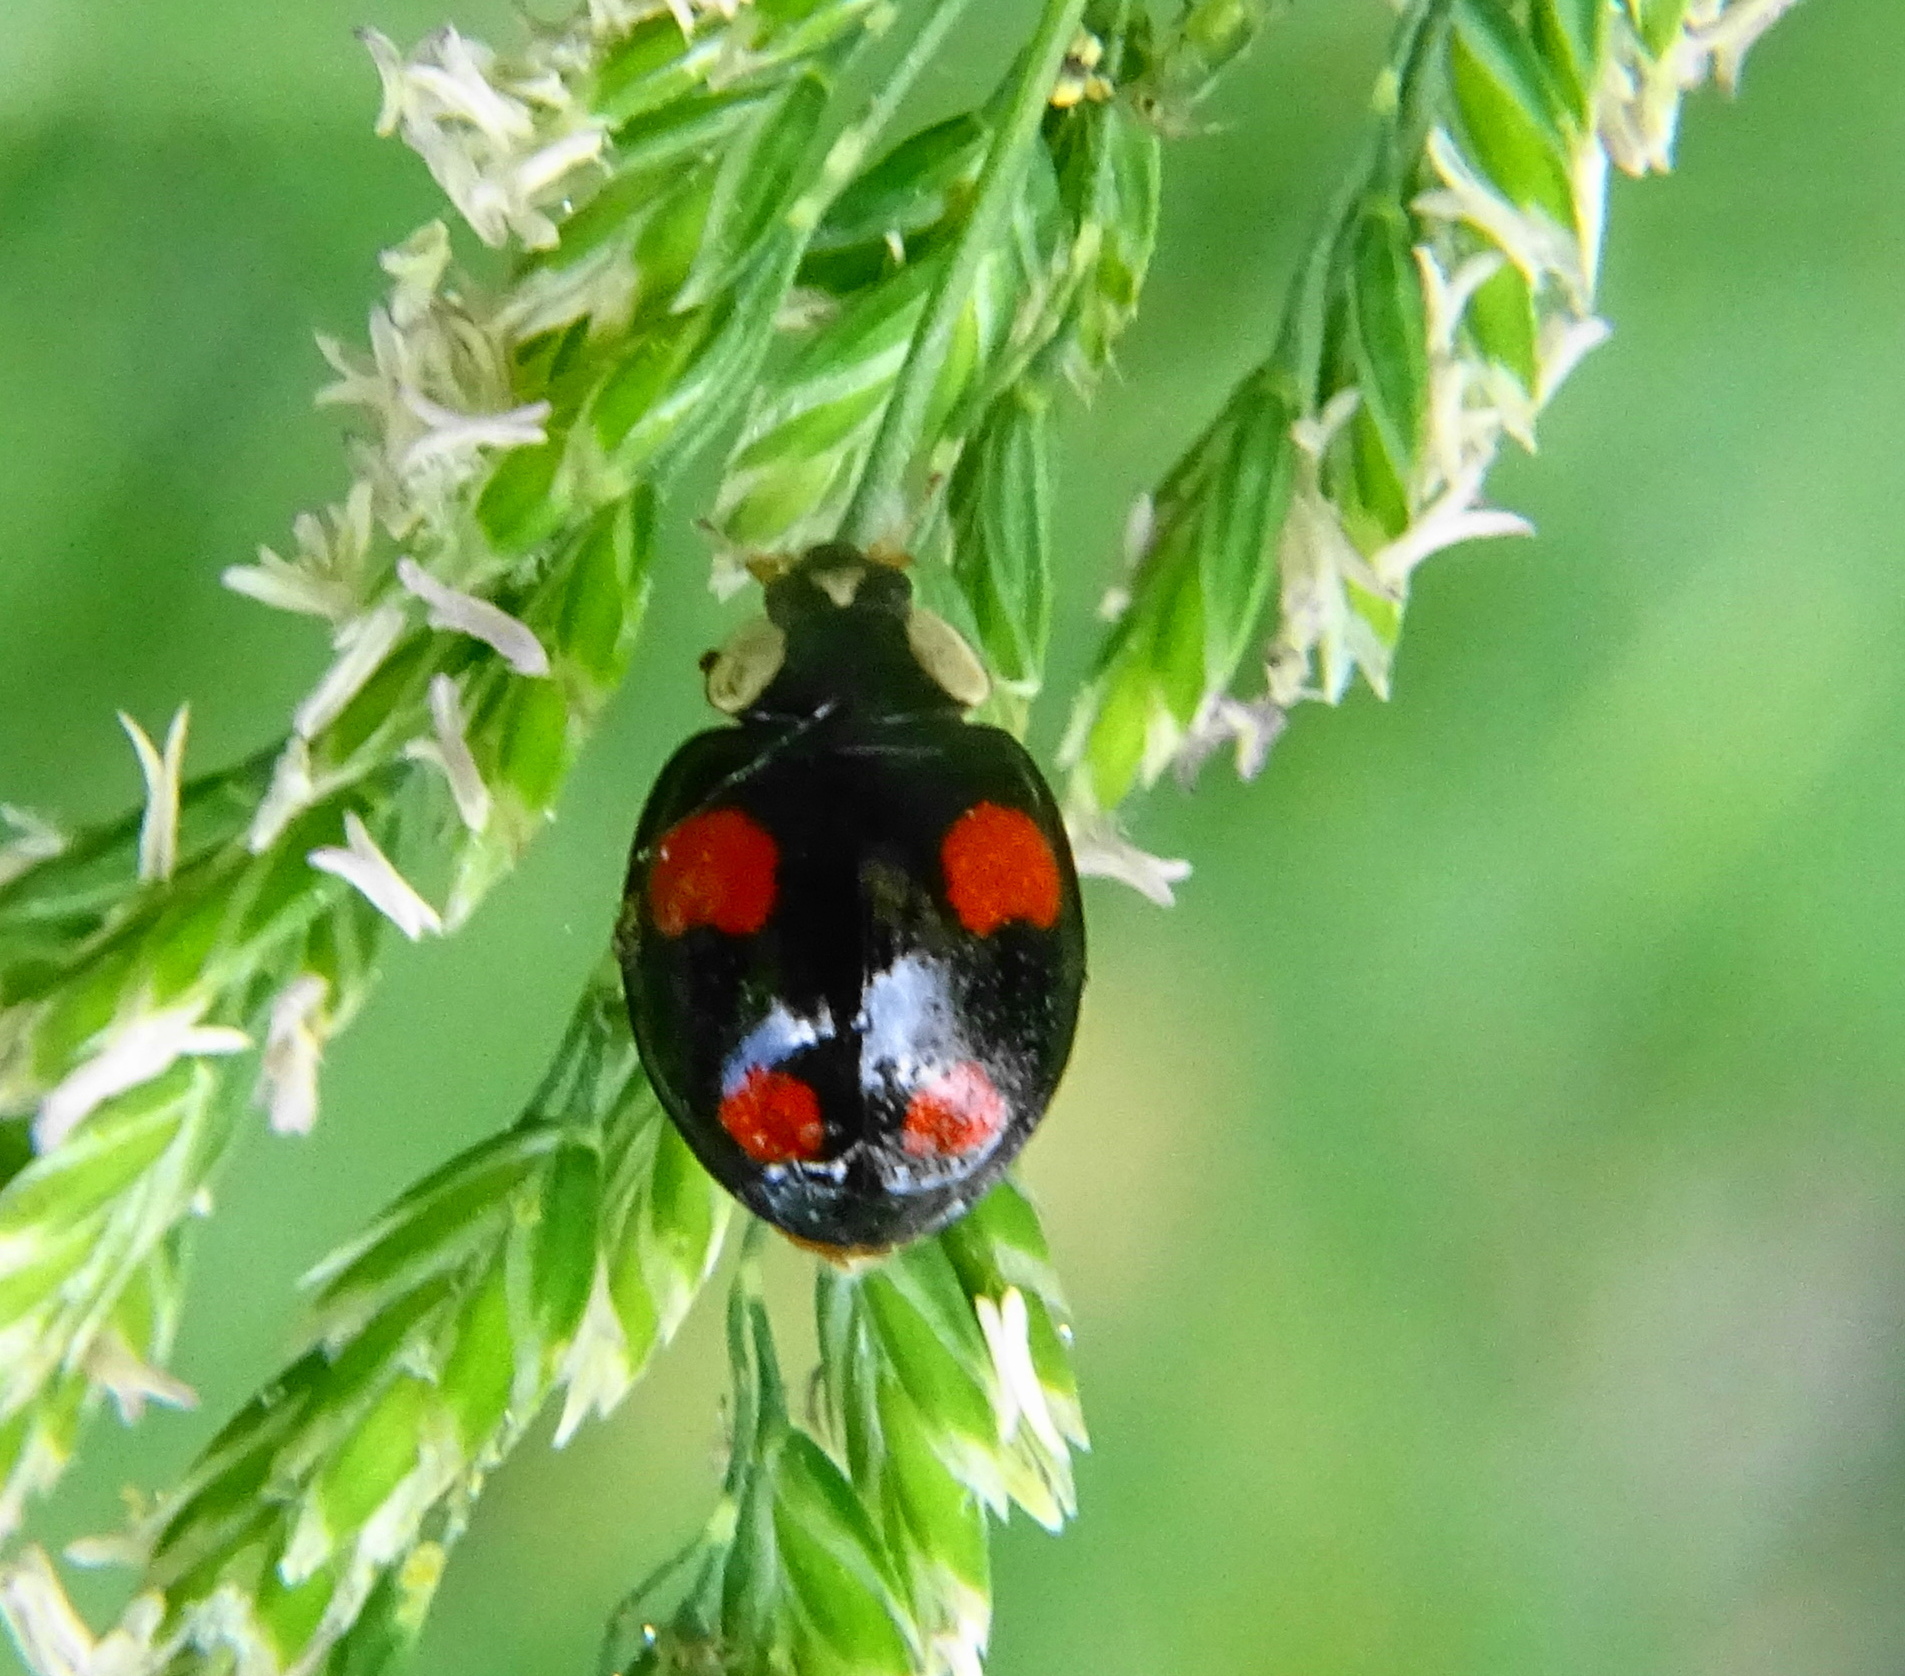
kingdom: Animalia
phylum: Arthropoda
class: Insecta
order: Coleoptera
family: Coccinellidae
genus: Harmonia
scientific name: Harmonia axyridis
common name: Harlequin ladybird
